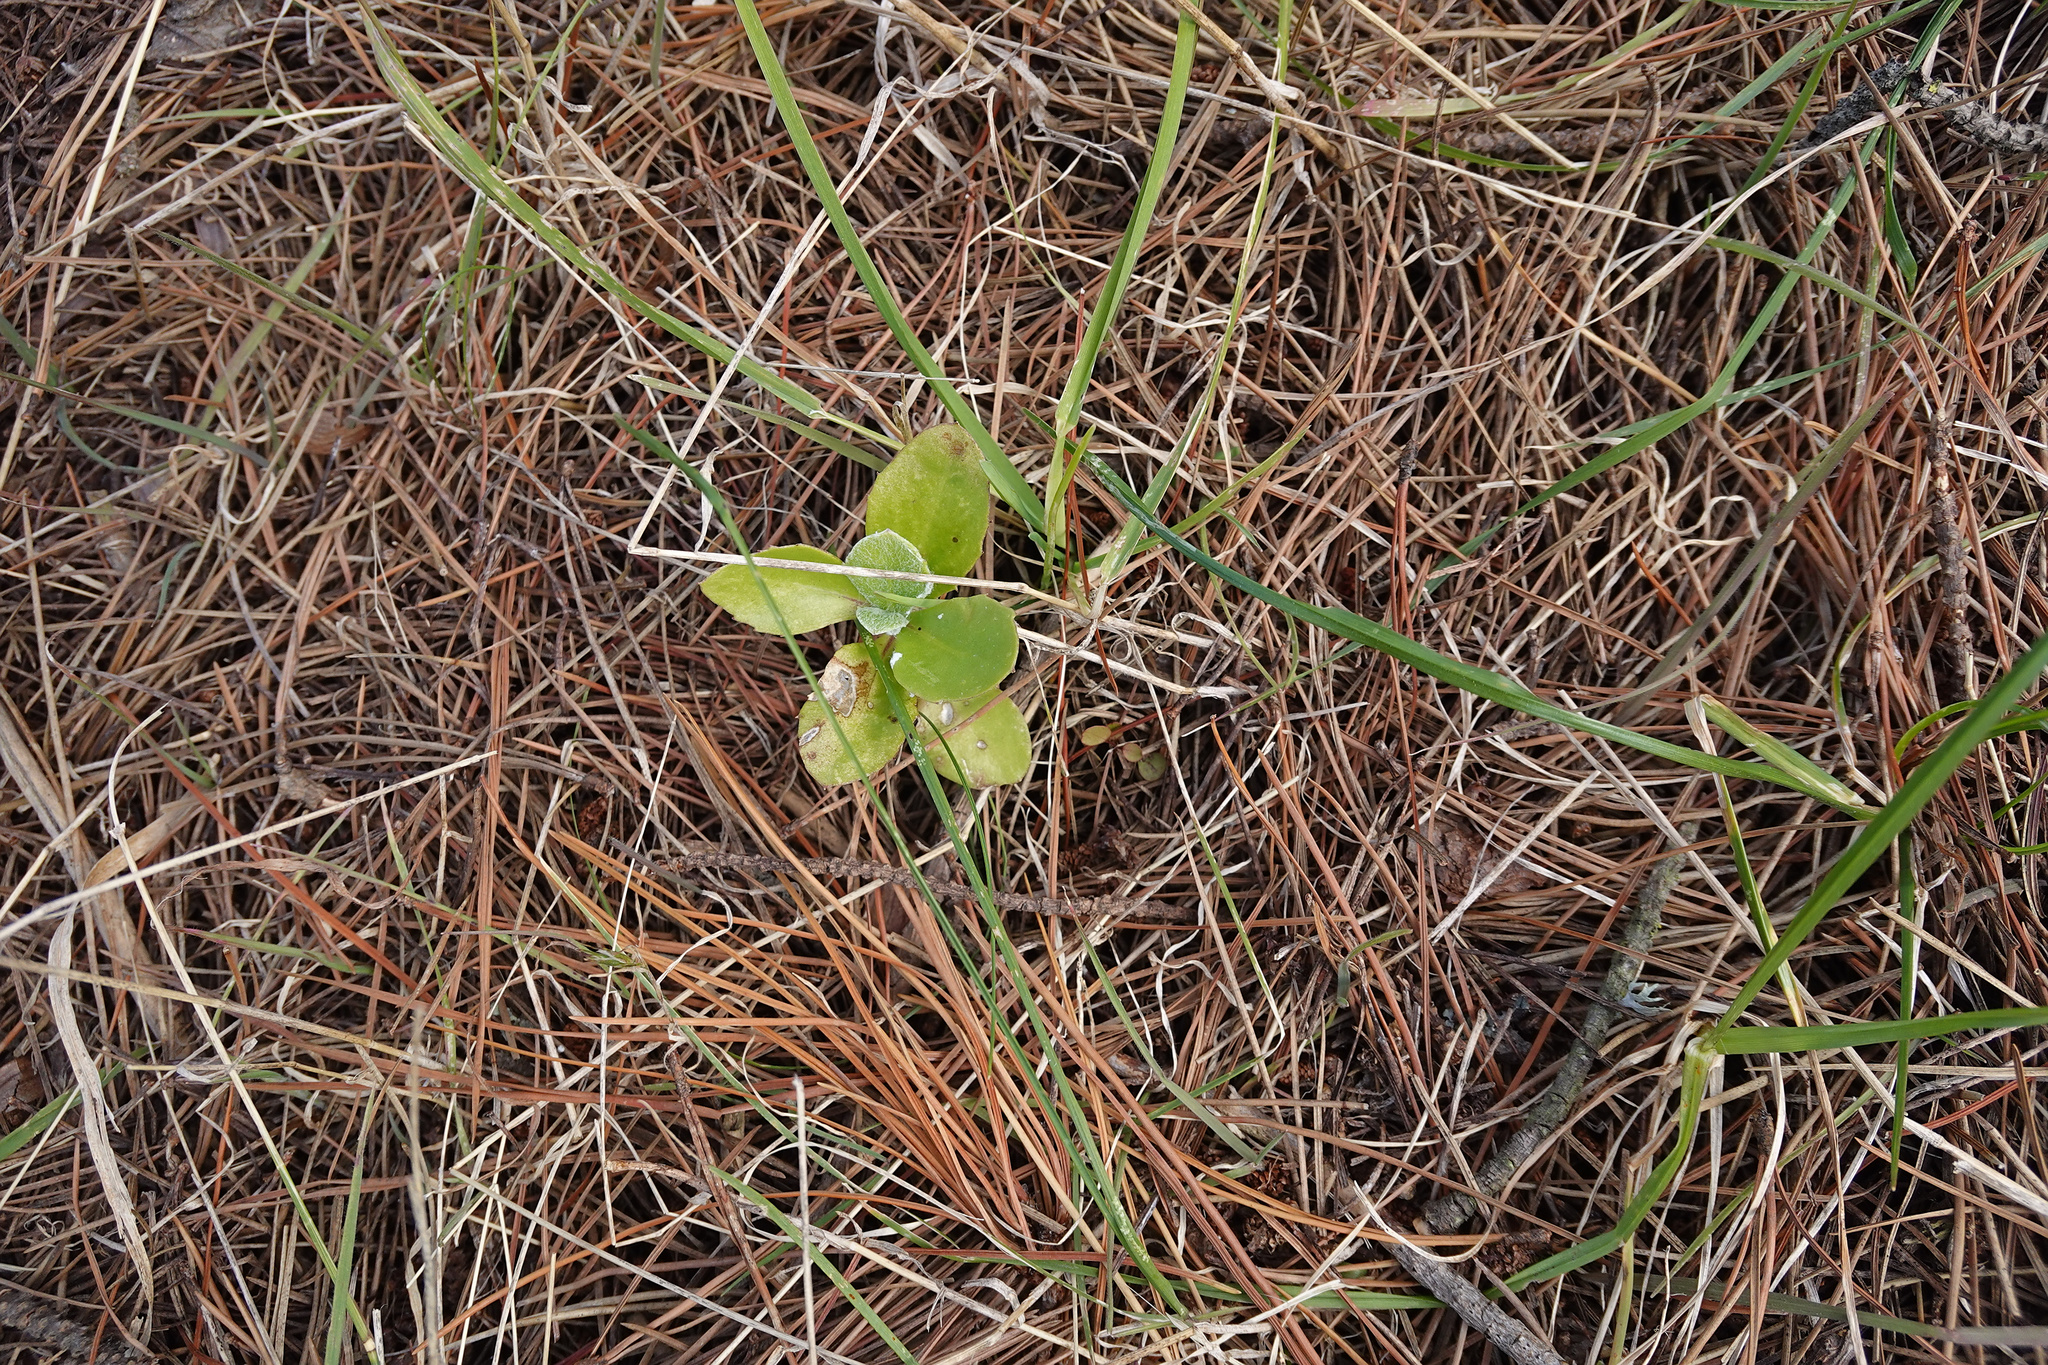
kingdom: Plantae
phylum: Tracheophyta
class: Magnoliopsida
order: Asterales
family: Asteraceae
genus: Osteospermum
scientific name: Osteospermum moniliferum
